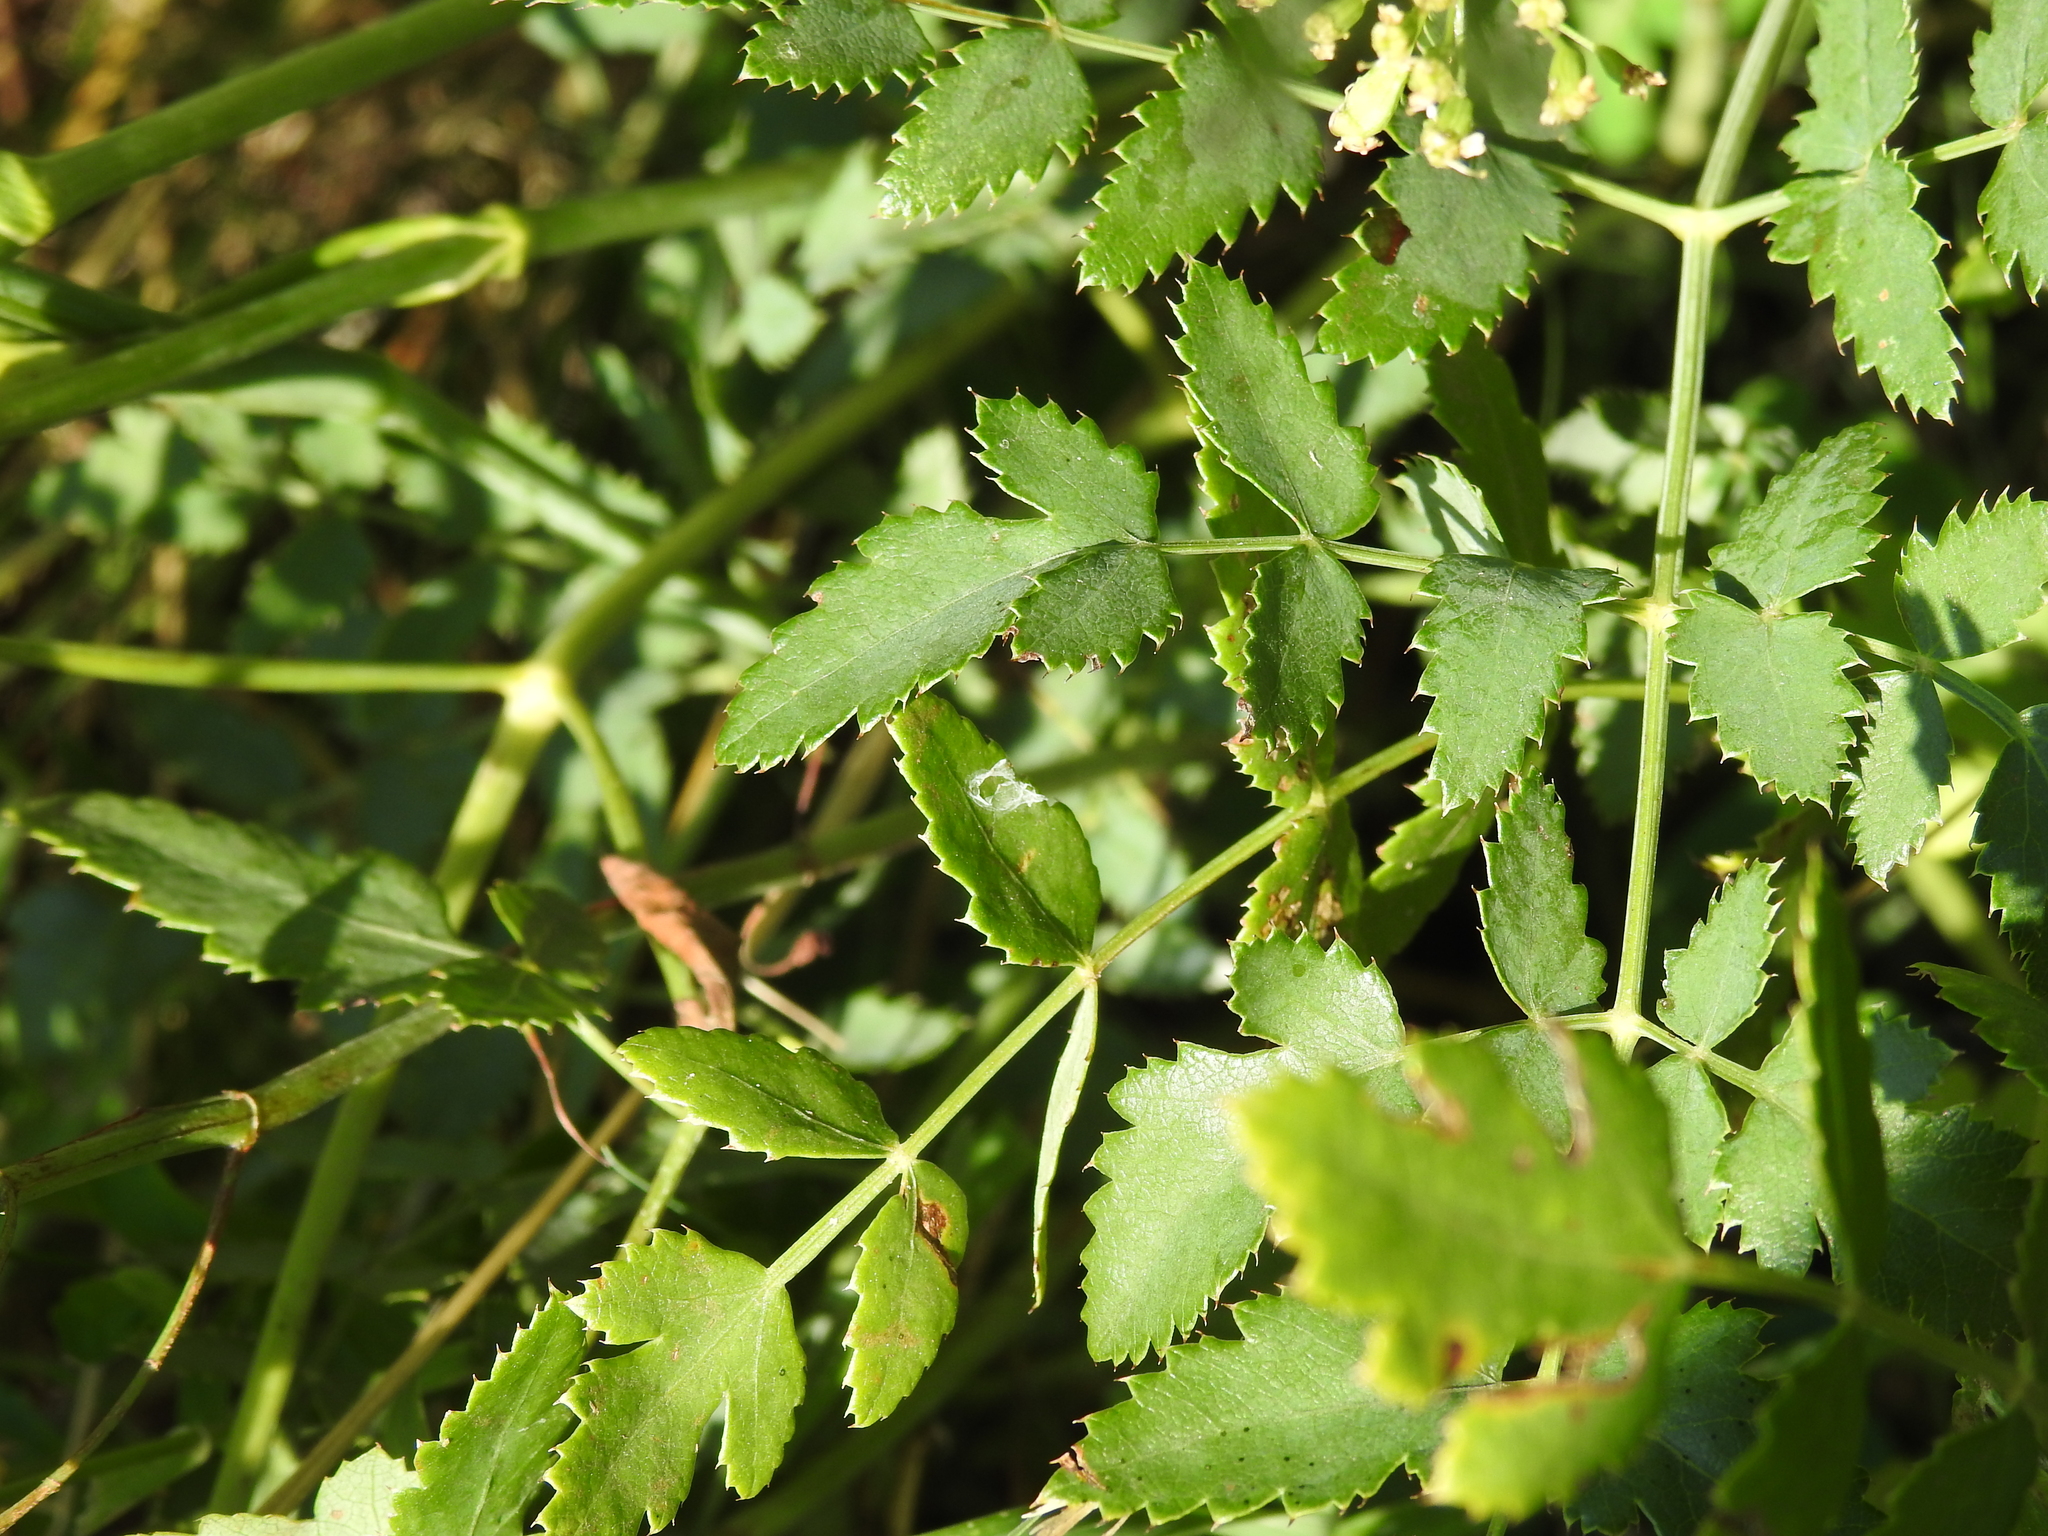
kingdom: Plantae
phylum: Tracheophyta
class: Magnoliopsida
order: Apiales
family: Apiaceae
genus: Cervaria
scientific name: Cervaria rivini
